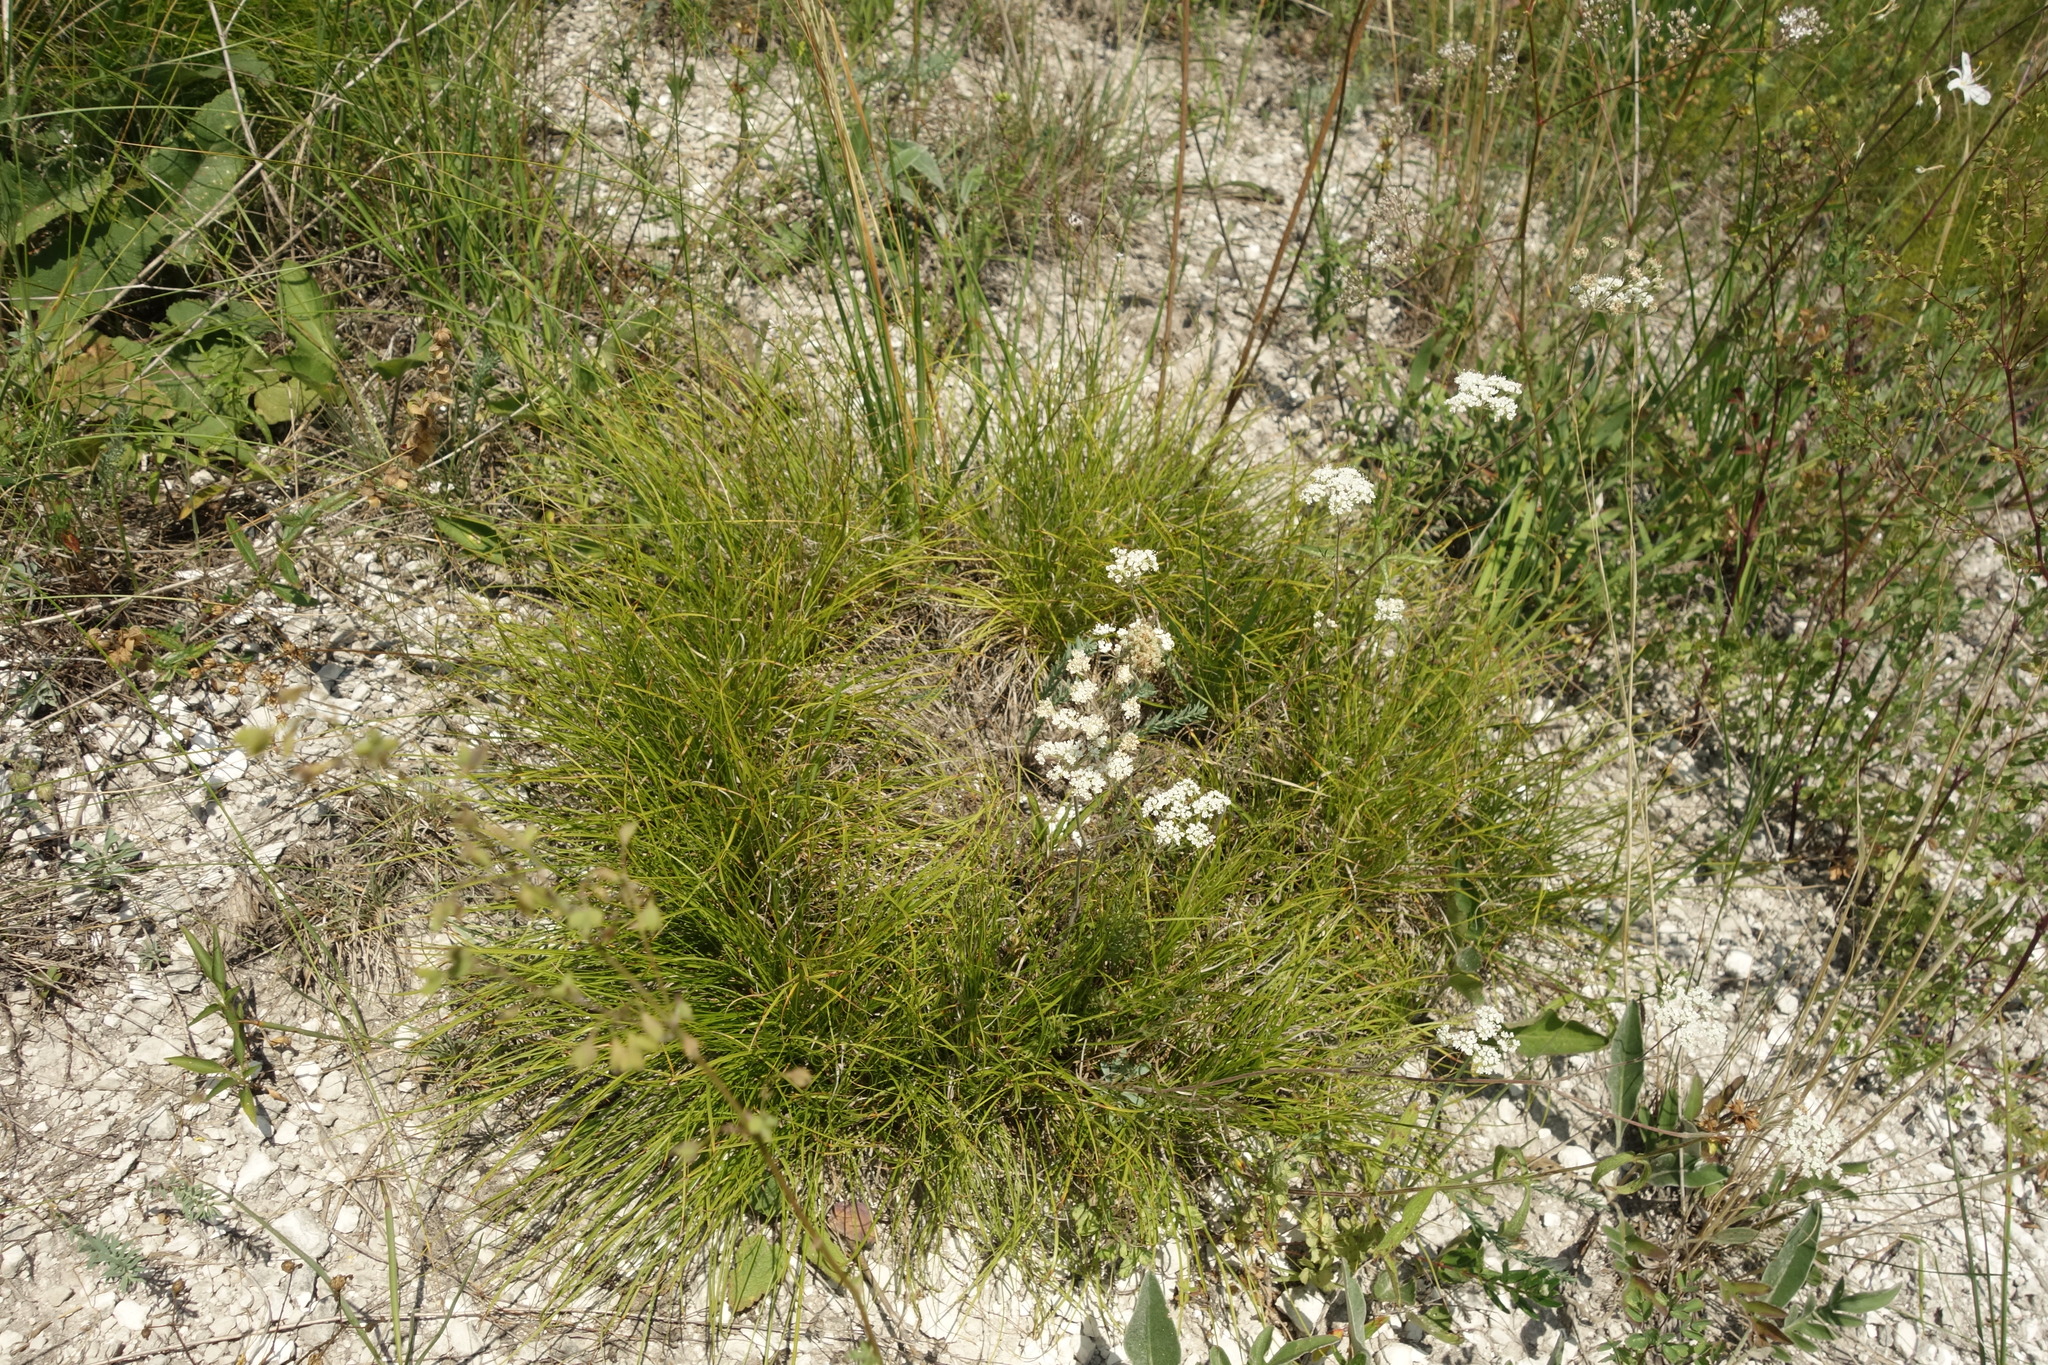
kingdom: Plantae
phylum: Tracheophyta
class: Liliopsida
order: Poales
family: Cyperaceae
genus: Carex
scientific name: Carex humilis
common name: Dwarf sedge
